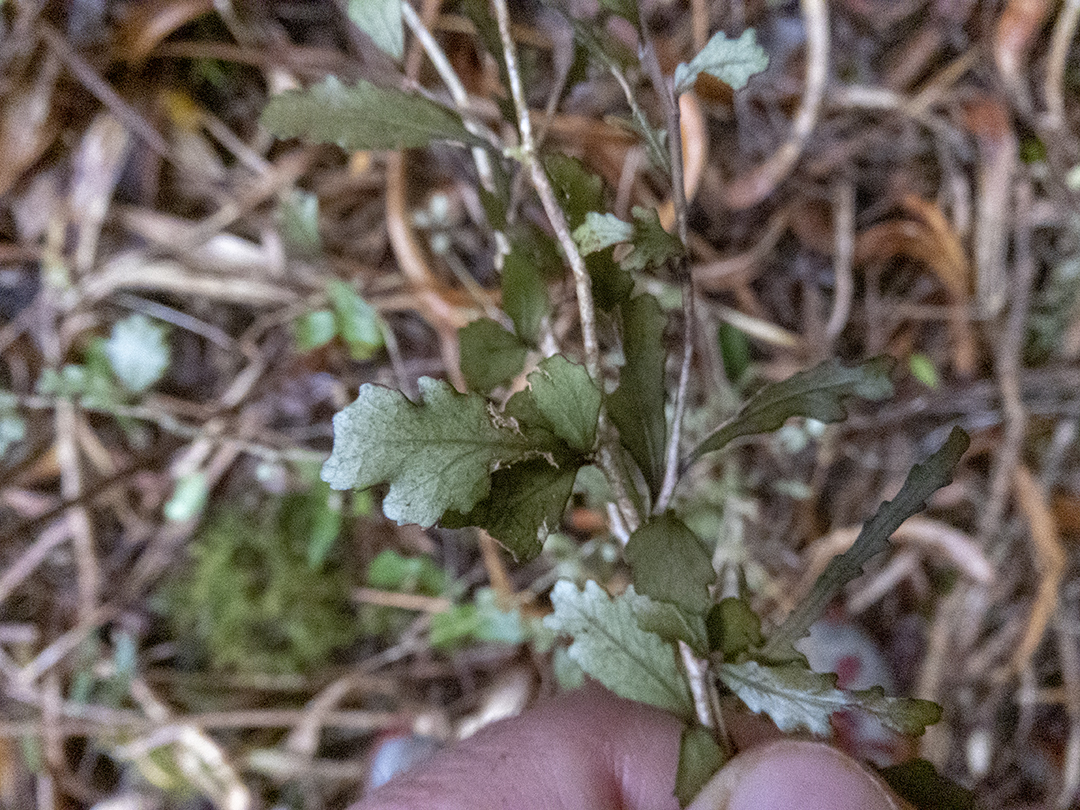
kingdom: Plantae
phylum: Tracheophyta
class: Magnoliopsida
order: Oxalidales
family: Elaeocarpaceae
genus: Elaeocarpus
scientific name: Elaeocarpus hookerianus
